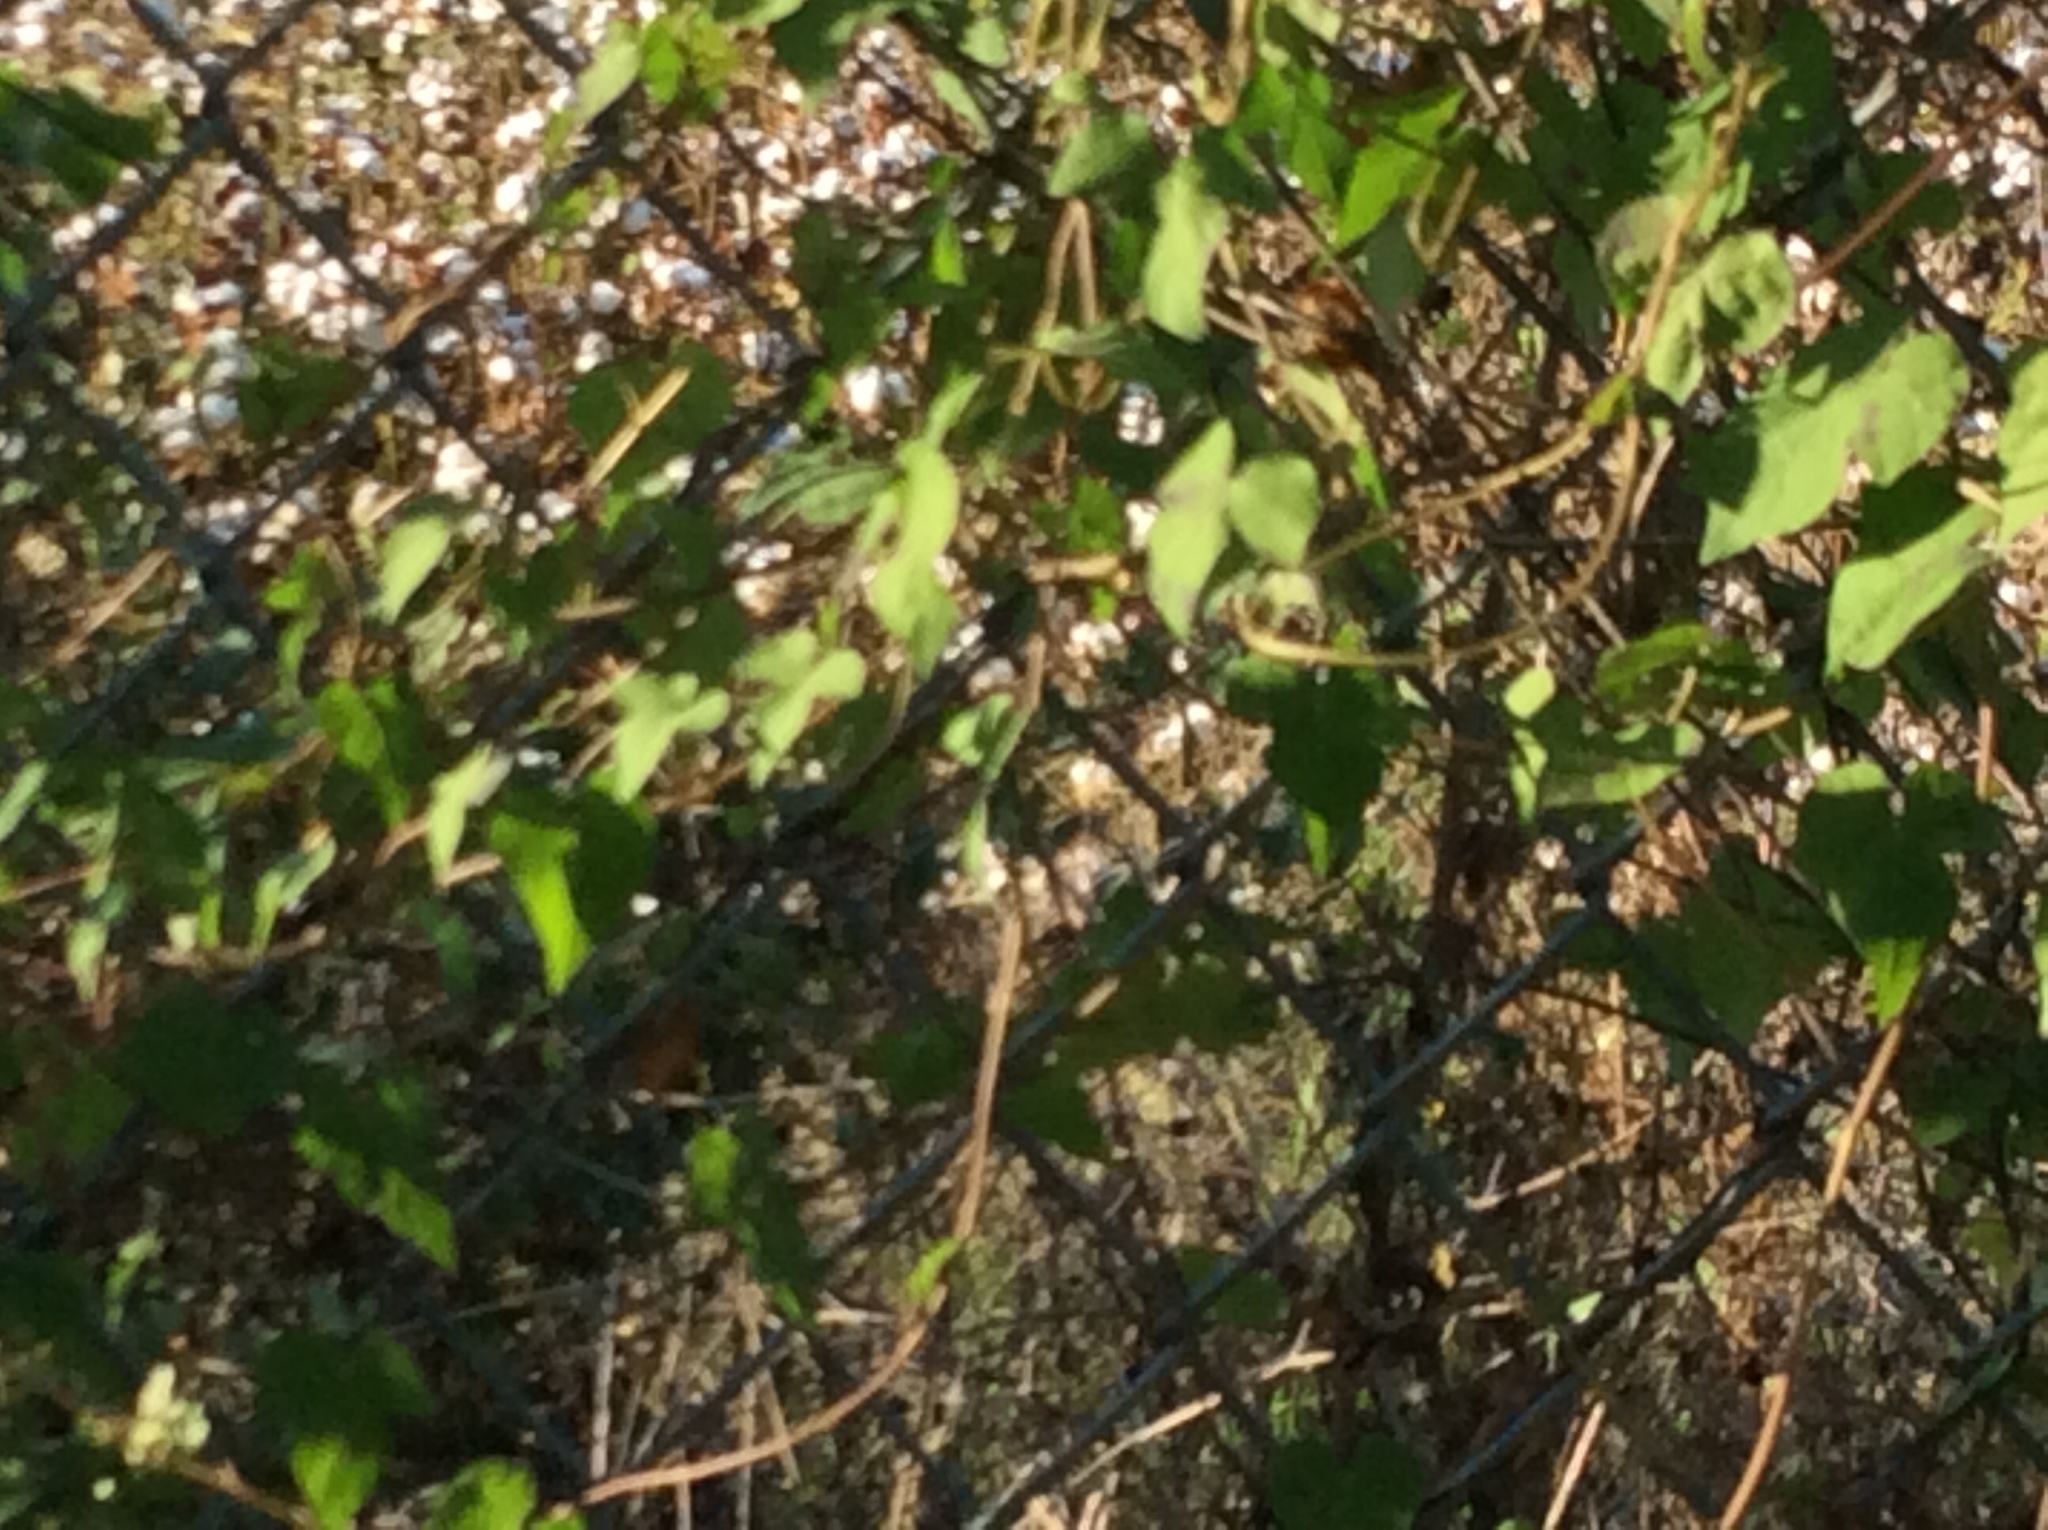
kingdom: Plantae
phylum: Tracheophyta
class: Magnoliopsida
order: Solanales
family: Convolvulaceae
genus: Ipomoea
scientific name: Ipomoea cordatotriloba
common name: Cotton morning glory
